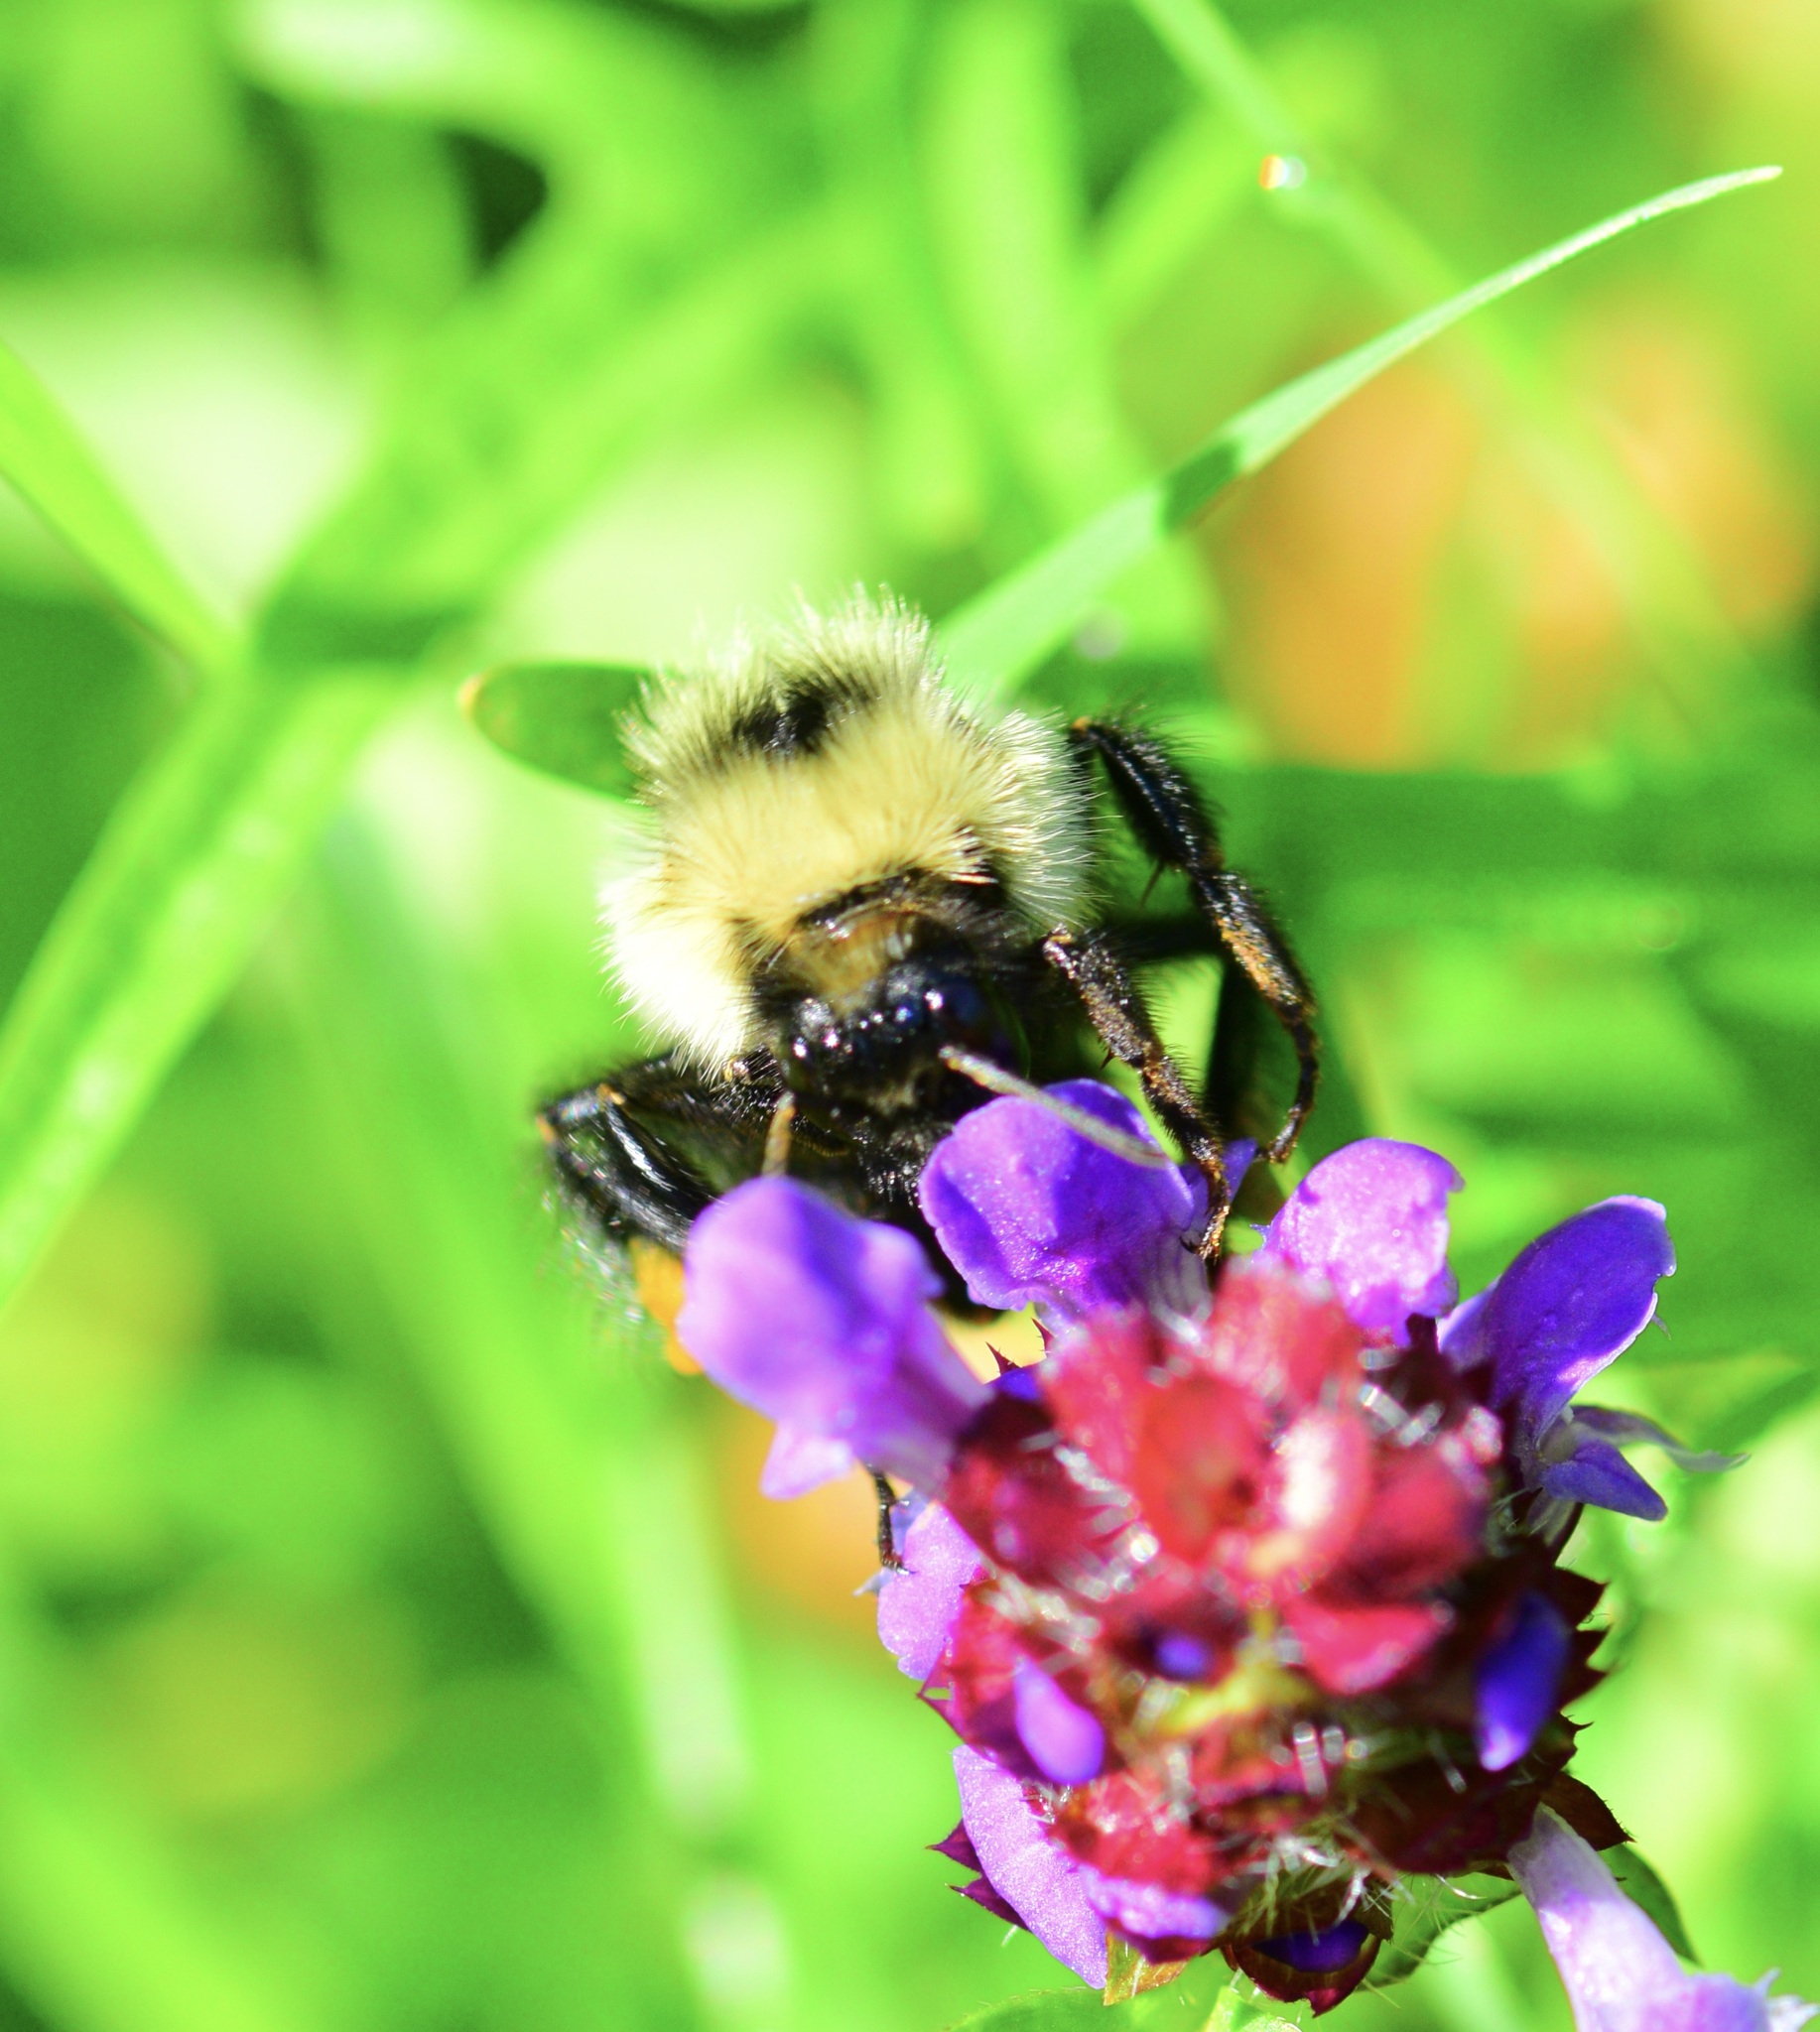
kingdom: Animalia
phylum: Arthropoda
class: Insecta
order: Hymenoptera
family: Apidae
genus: Pyrobombus
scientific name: Pyrobombus
